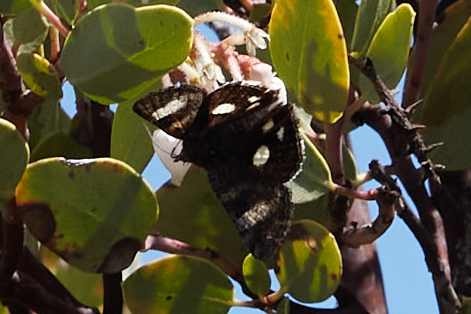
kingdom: Animalia
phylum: Arthropoda
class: Insecta
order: Lepidoptera
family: Erebidae
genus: Litocala
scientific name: Litocala sexsignata
